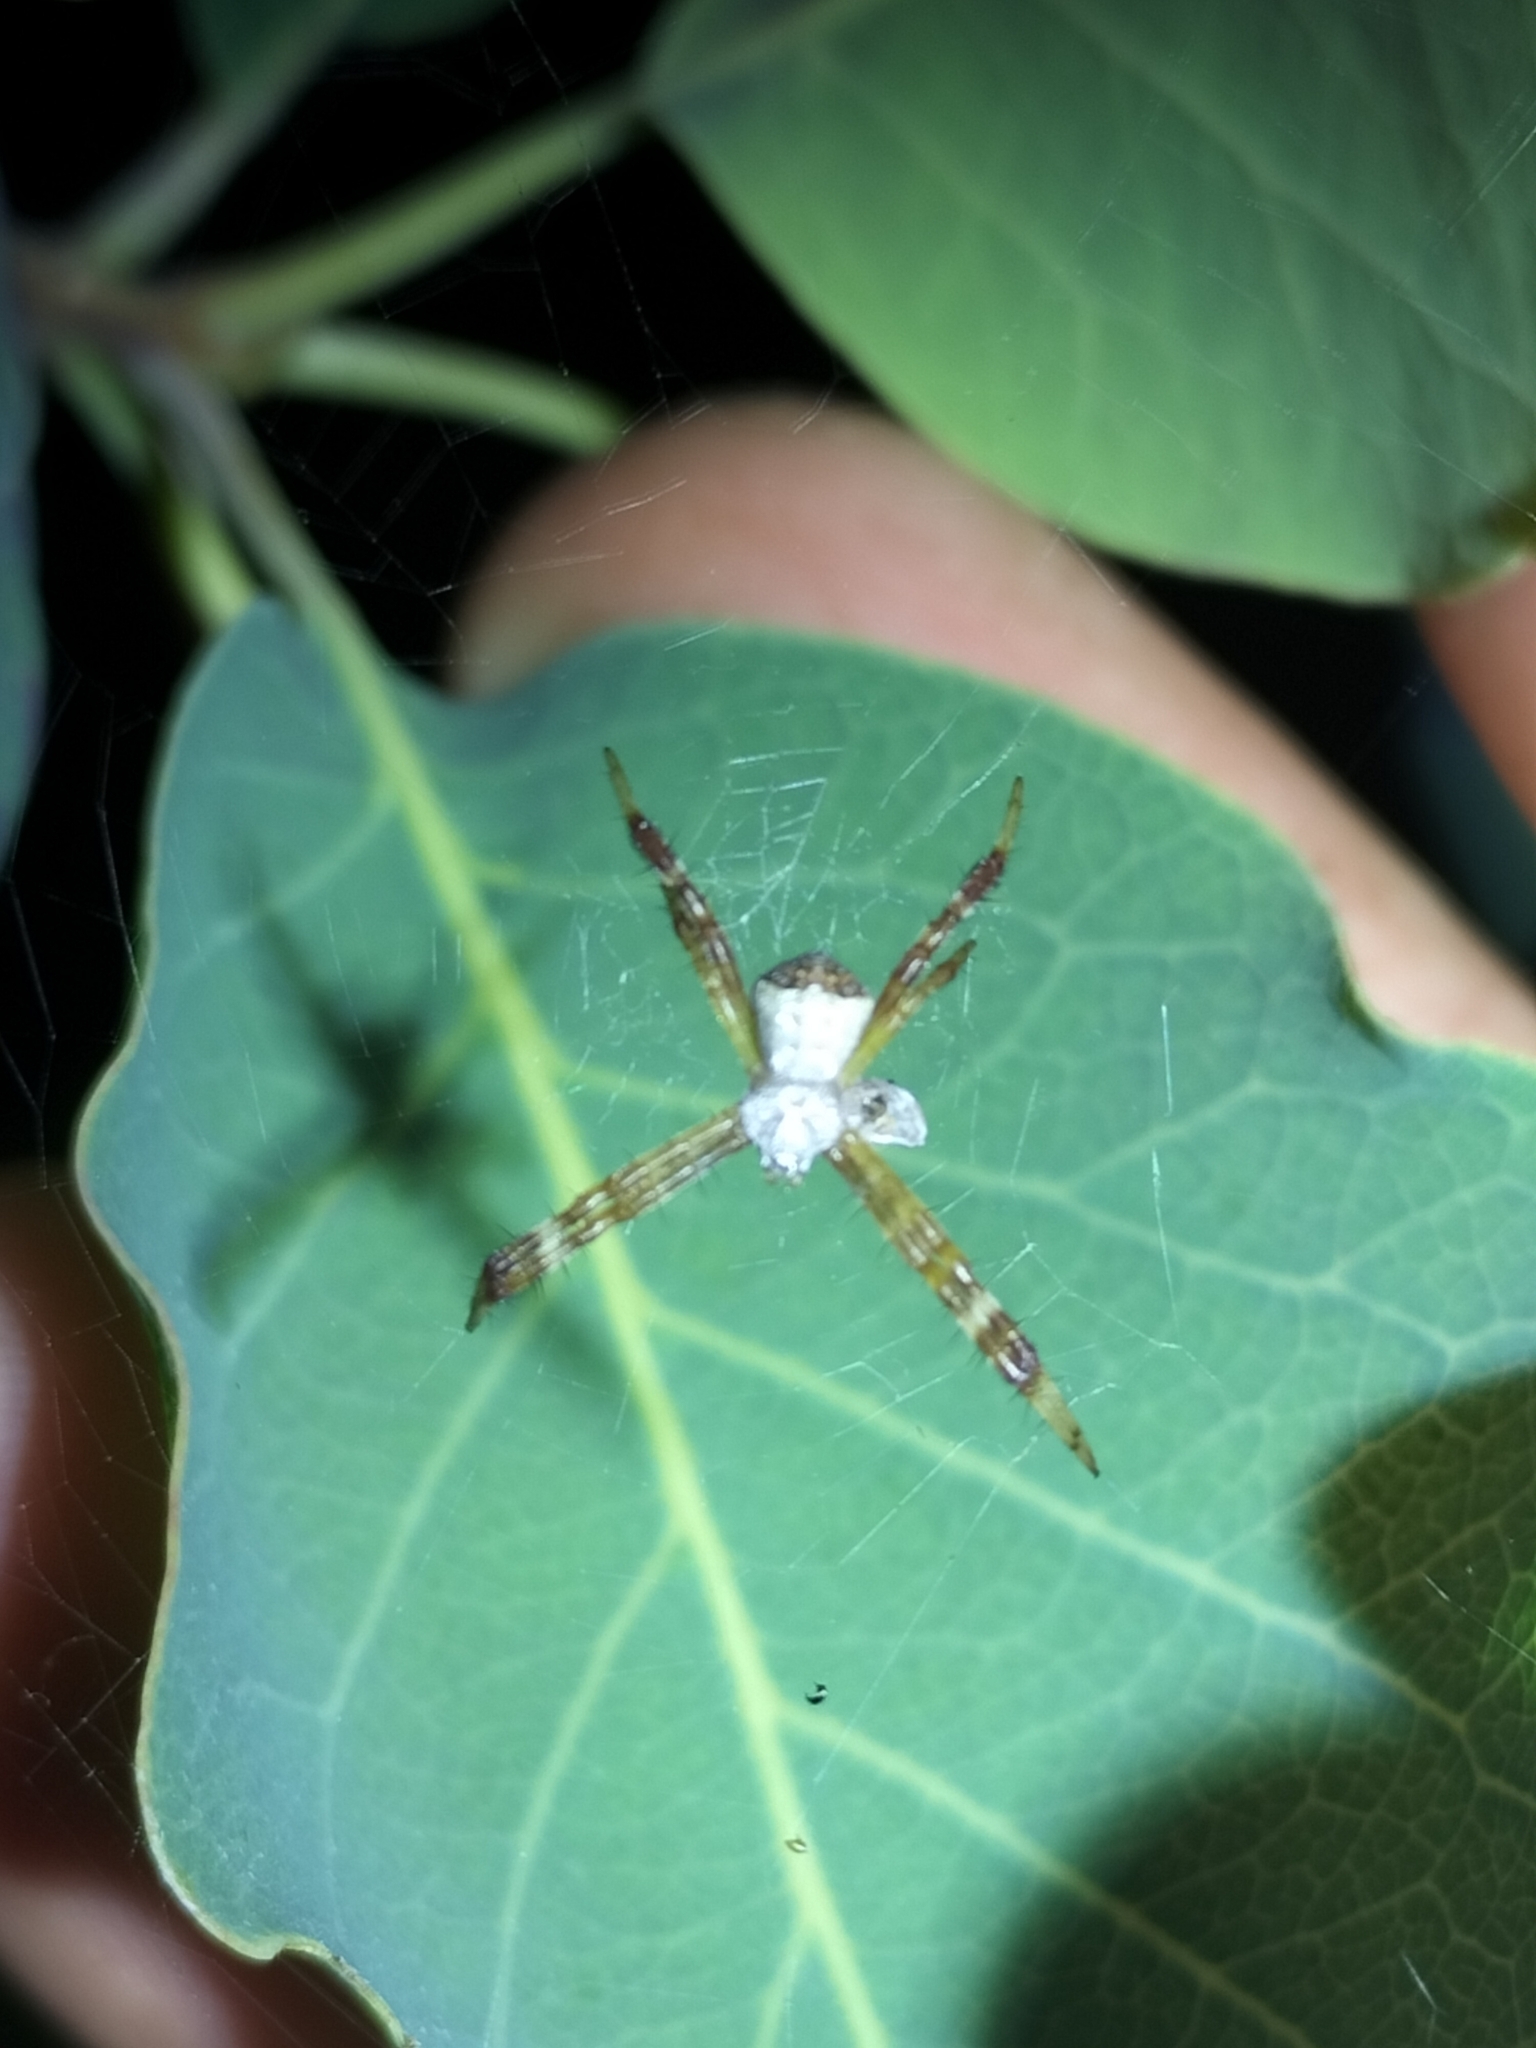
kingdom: Animalia
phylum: Arthropoda
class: Arachnida
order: Araneae
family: Araneidae
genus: Argiope
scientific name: Argiope kochi
